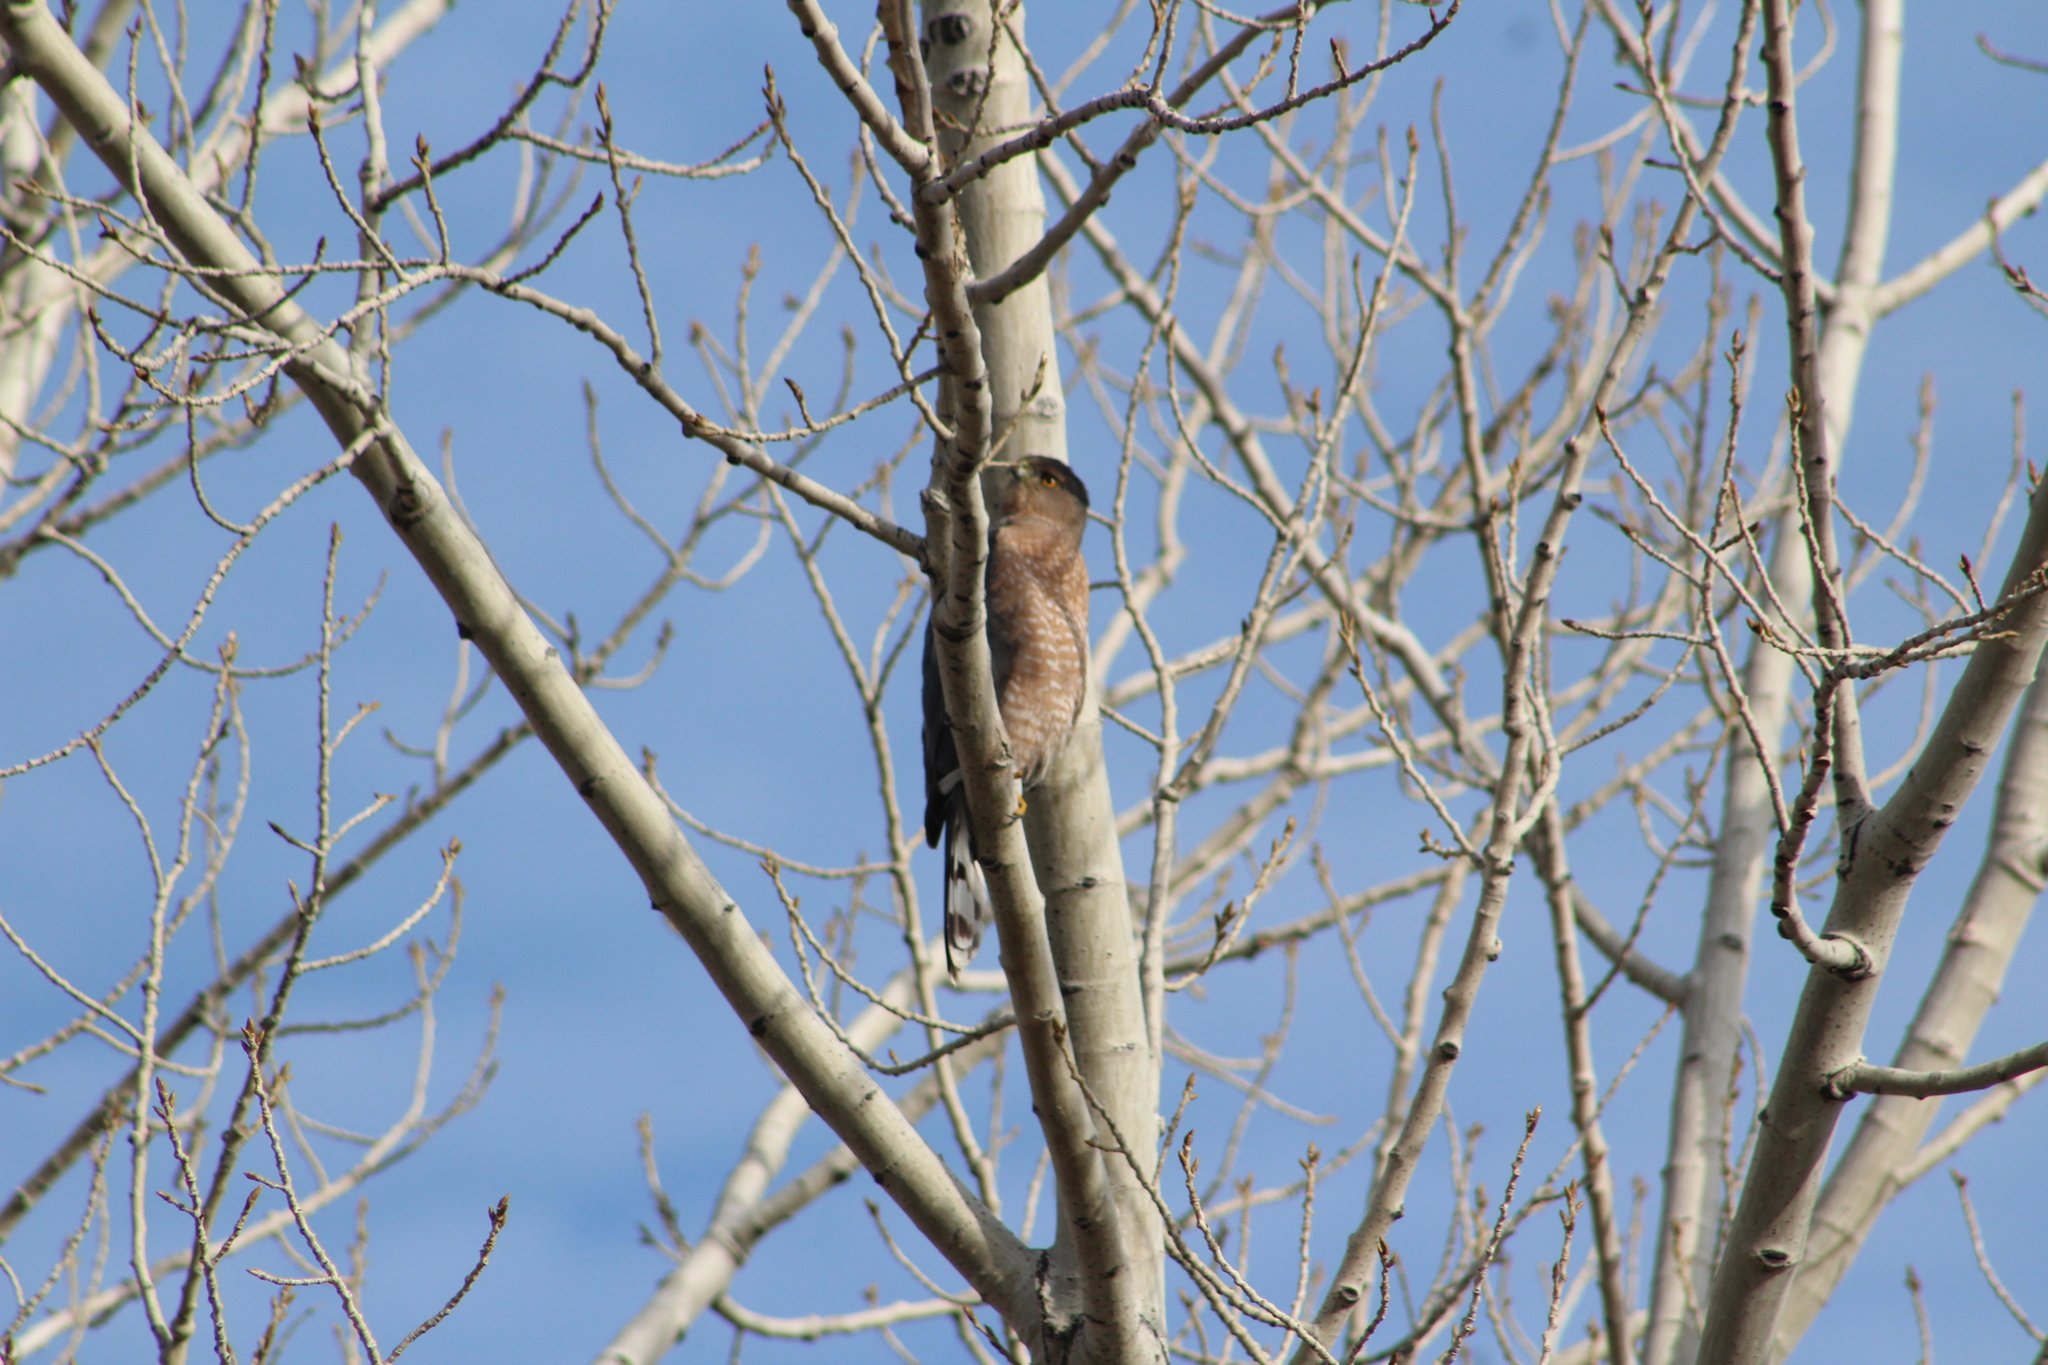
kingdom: Animalia
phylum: Chordata
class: Aves
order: Accipitriformes
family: Accipitridae
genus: Accipiter
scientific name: Accipiter cooperii
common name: Cooper's hawk
